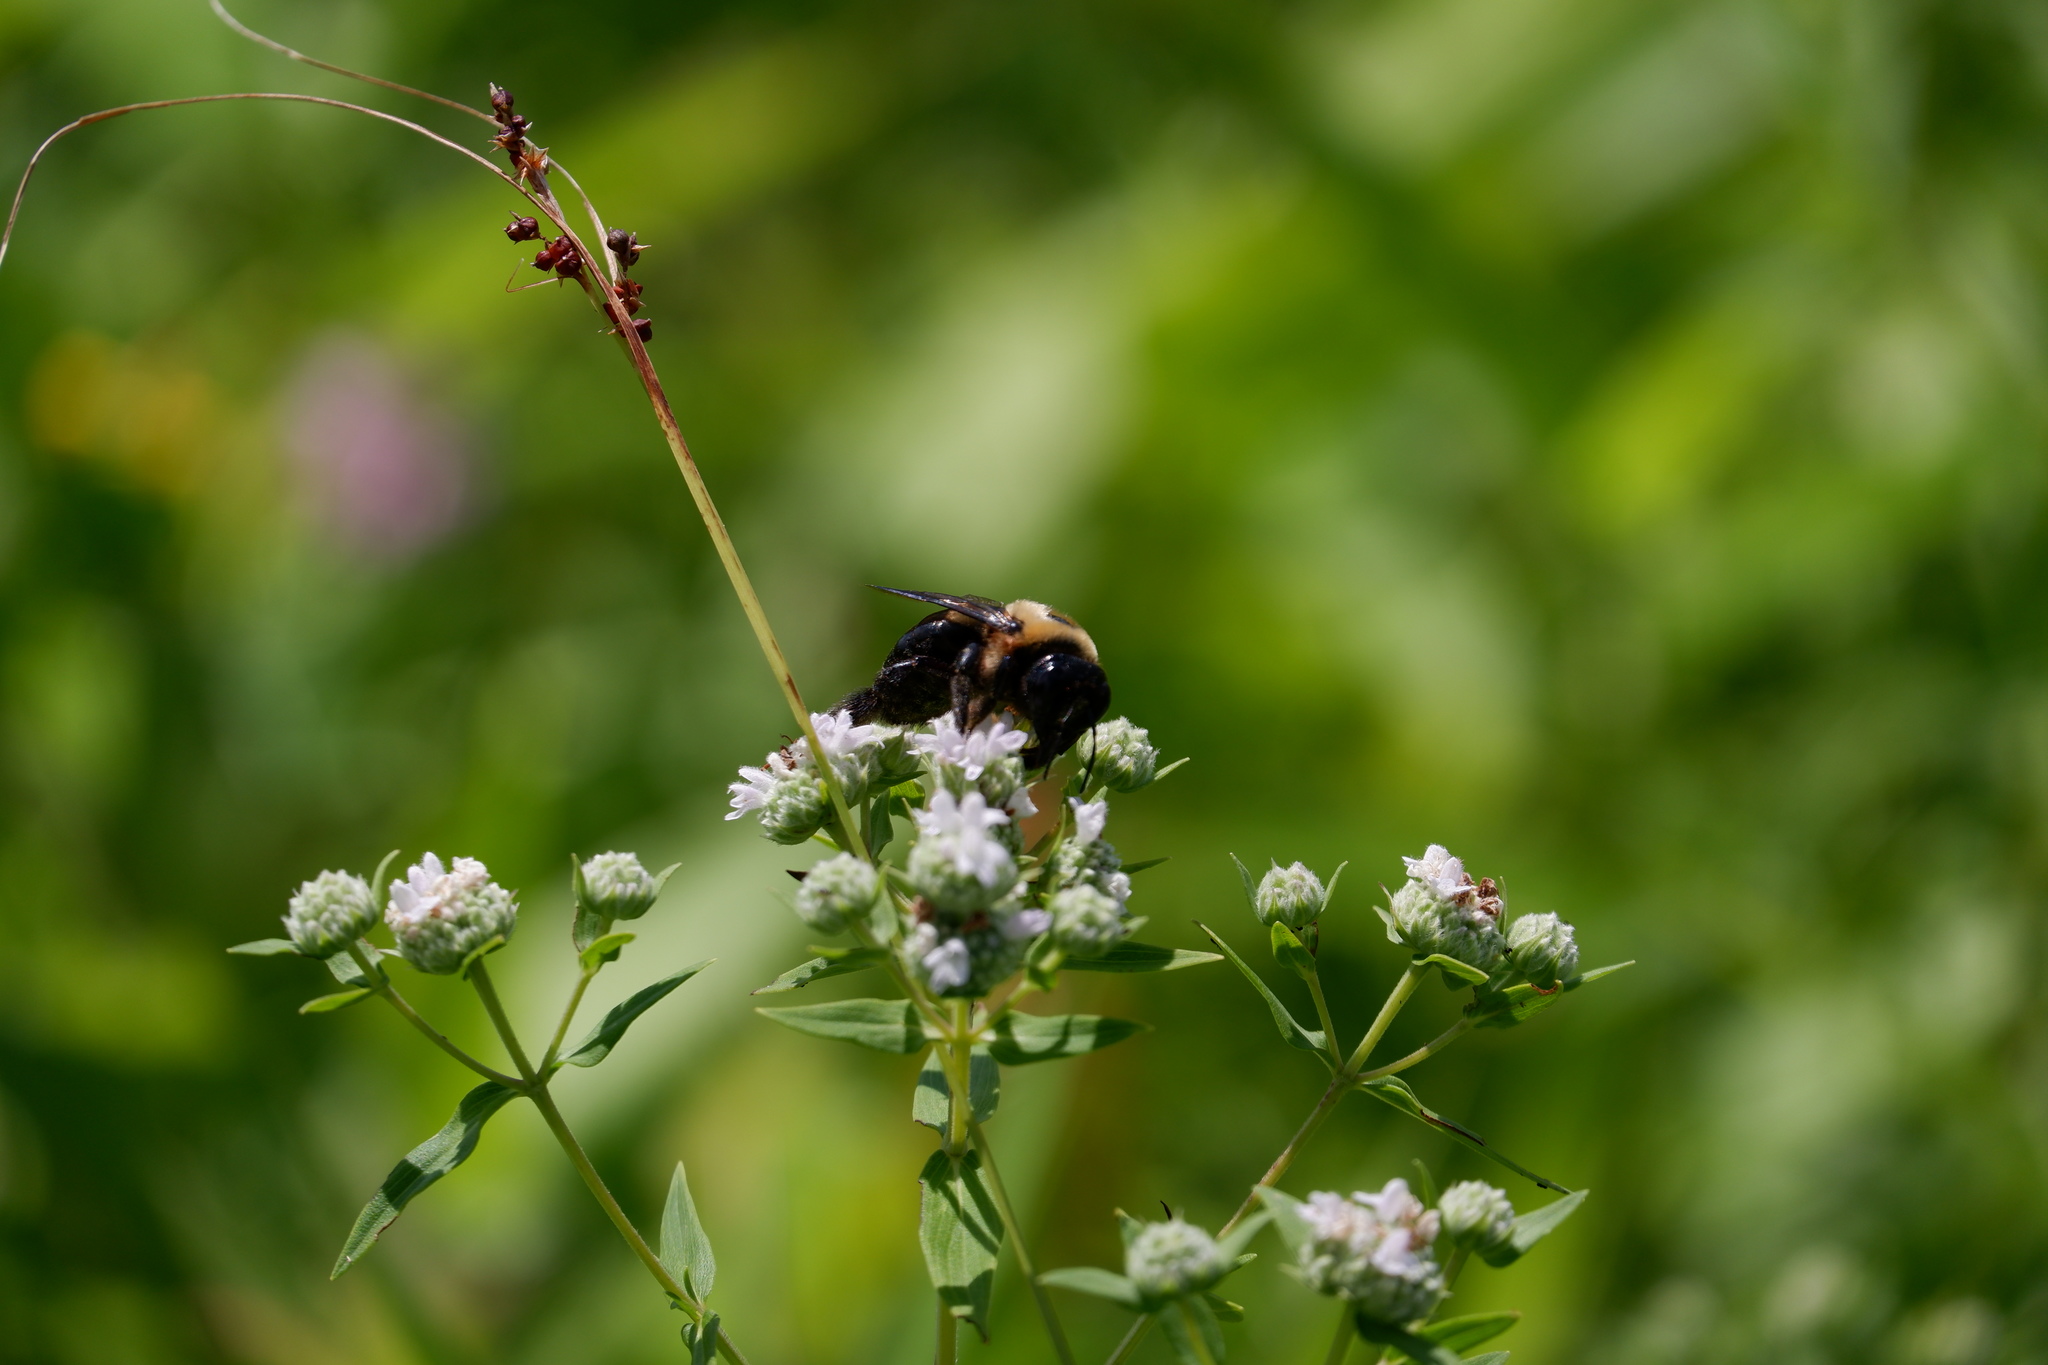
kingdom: Animalia
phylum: Arthropoda
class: Insecta
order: Hymenoptera
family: Apidae
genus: Xylocopa
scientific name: Xylocopa virginica
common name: Carpenter bee
